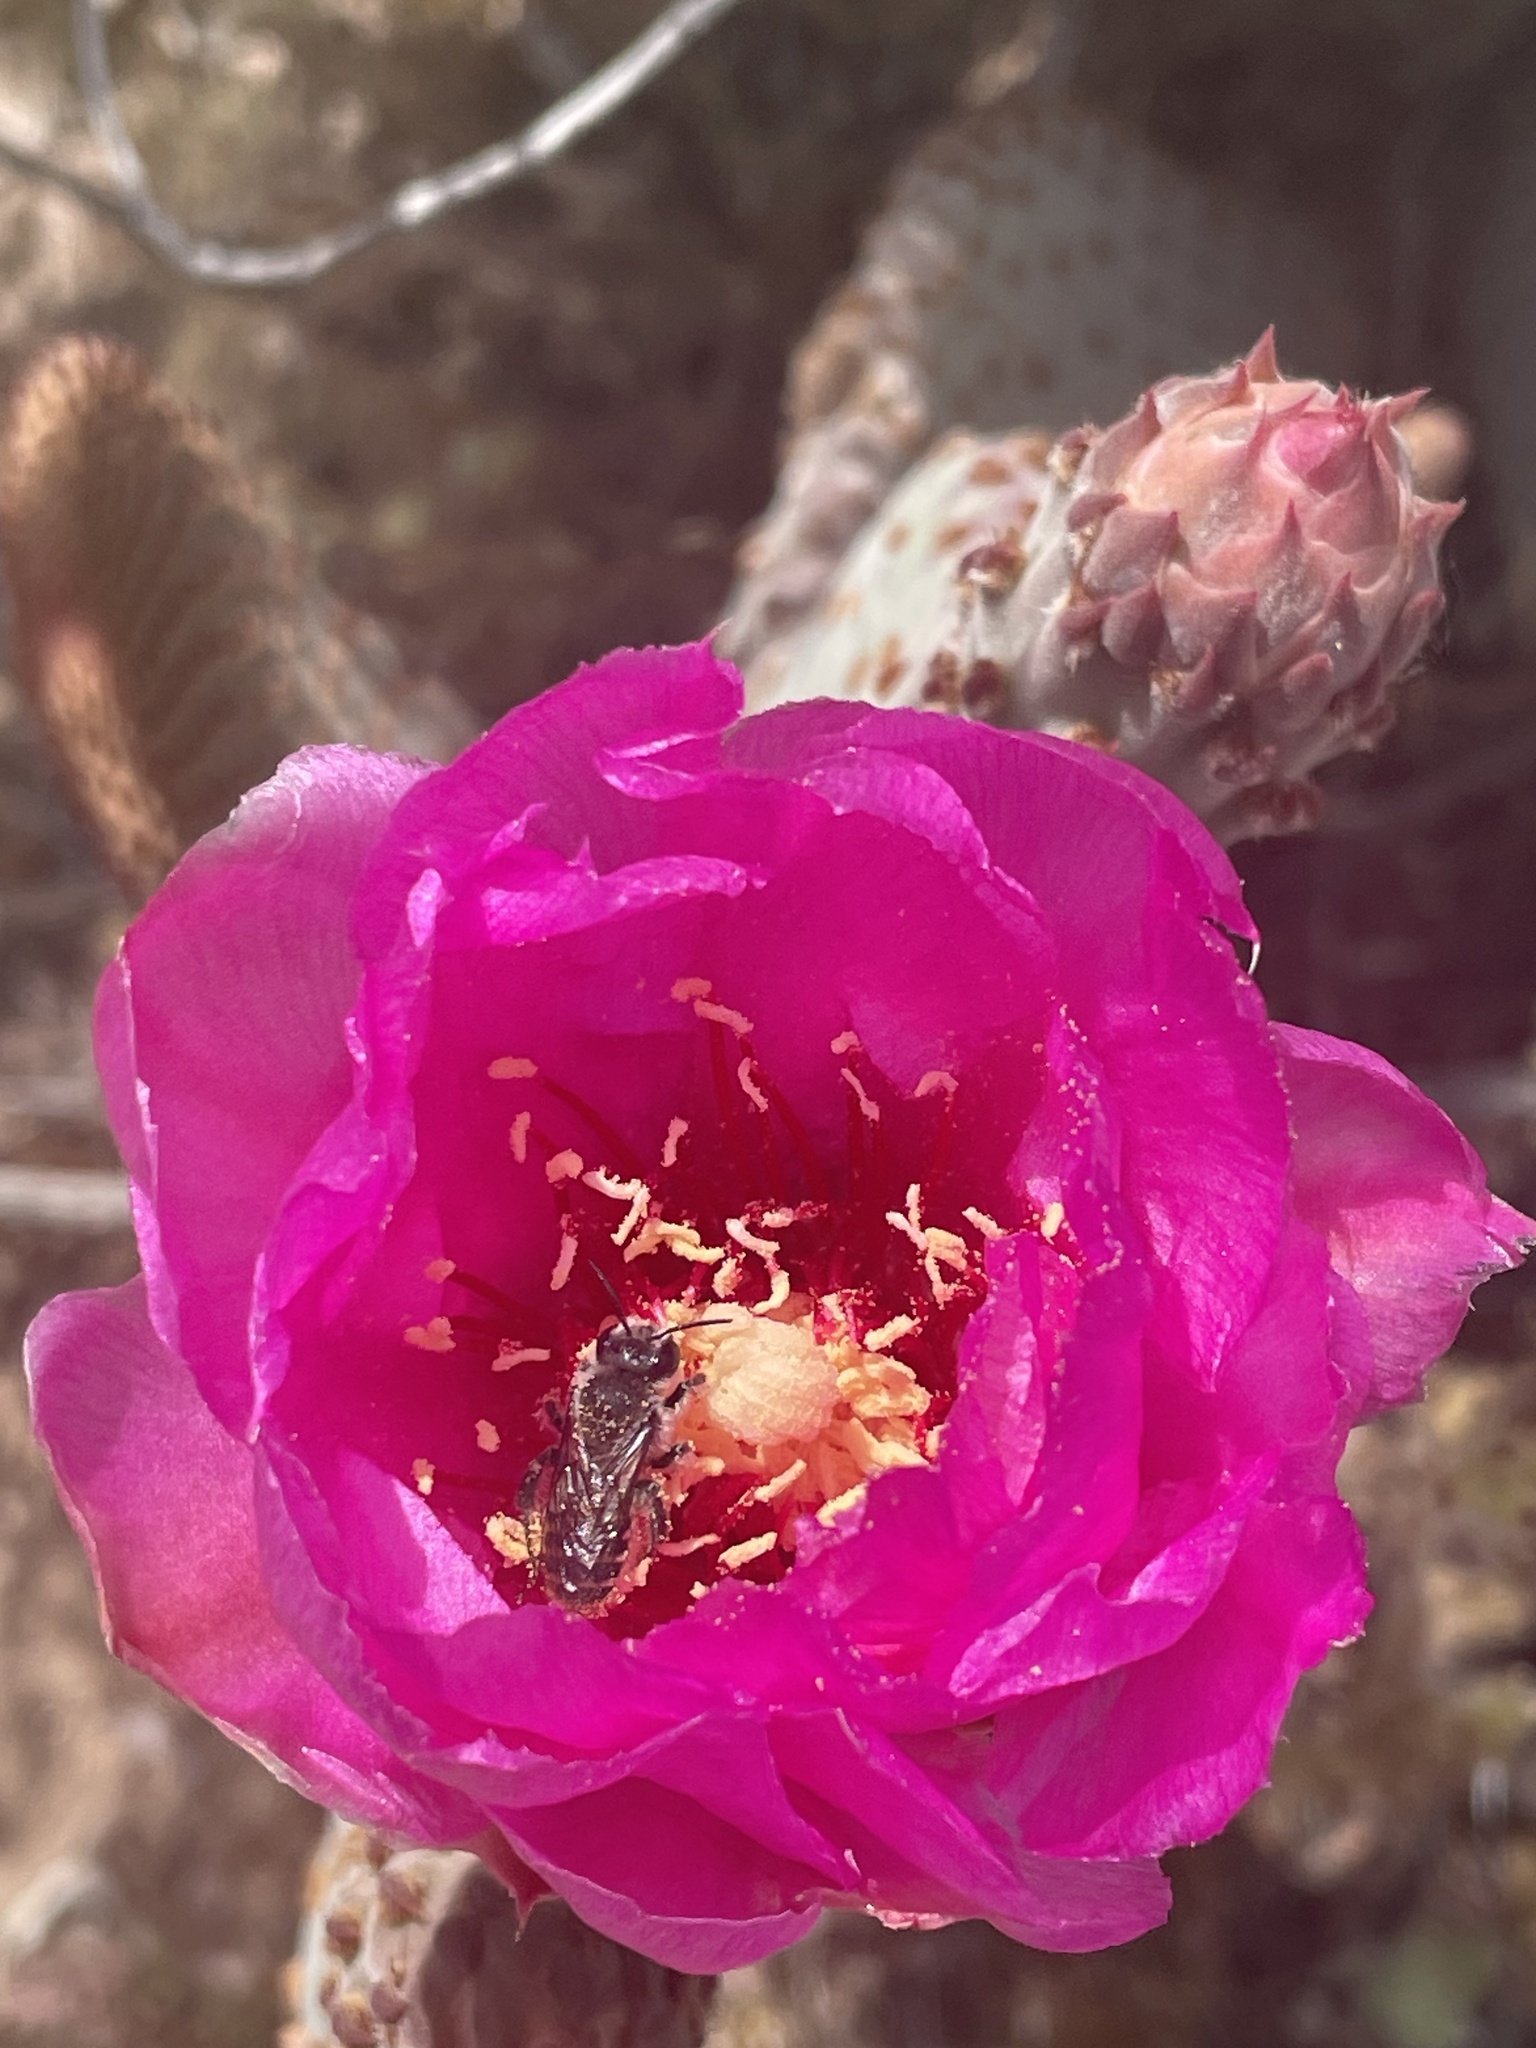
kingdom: Animalia
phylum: Arthropoda
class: Insecta
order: Hymenoptera
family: Megachilidae
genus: Lithurgopsis
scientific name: Lithurgopsis apicalis
